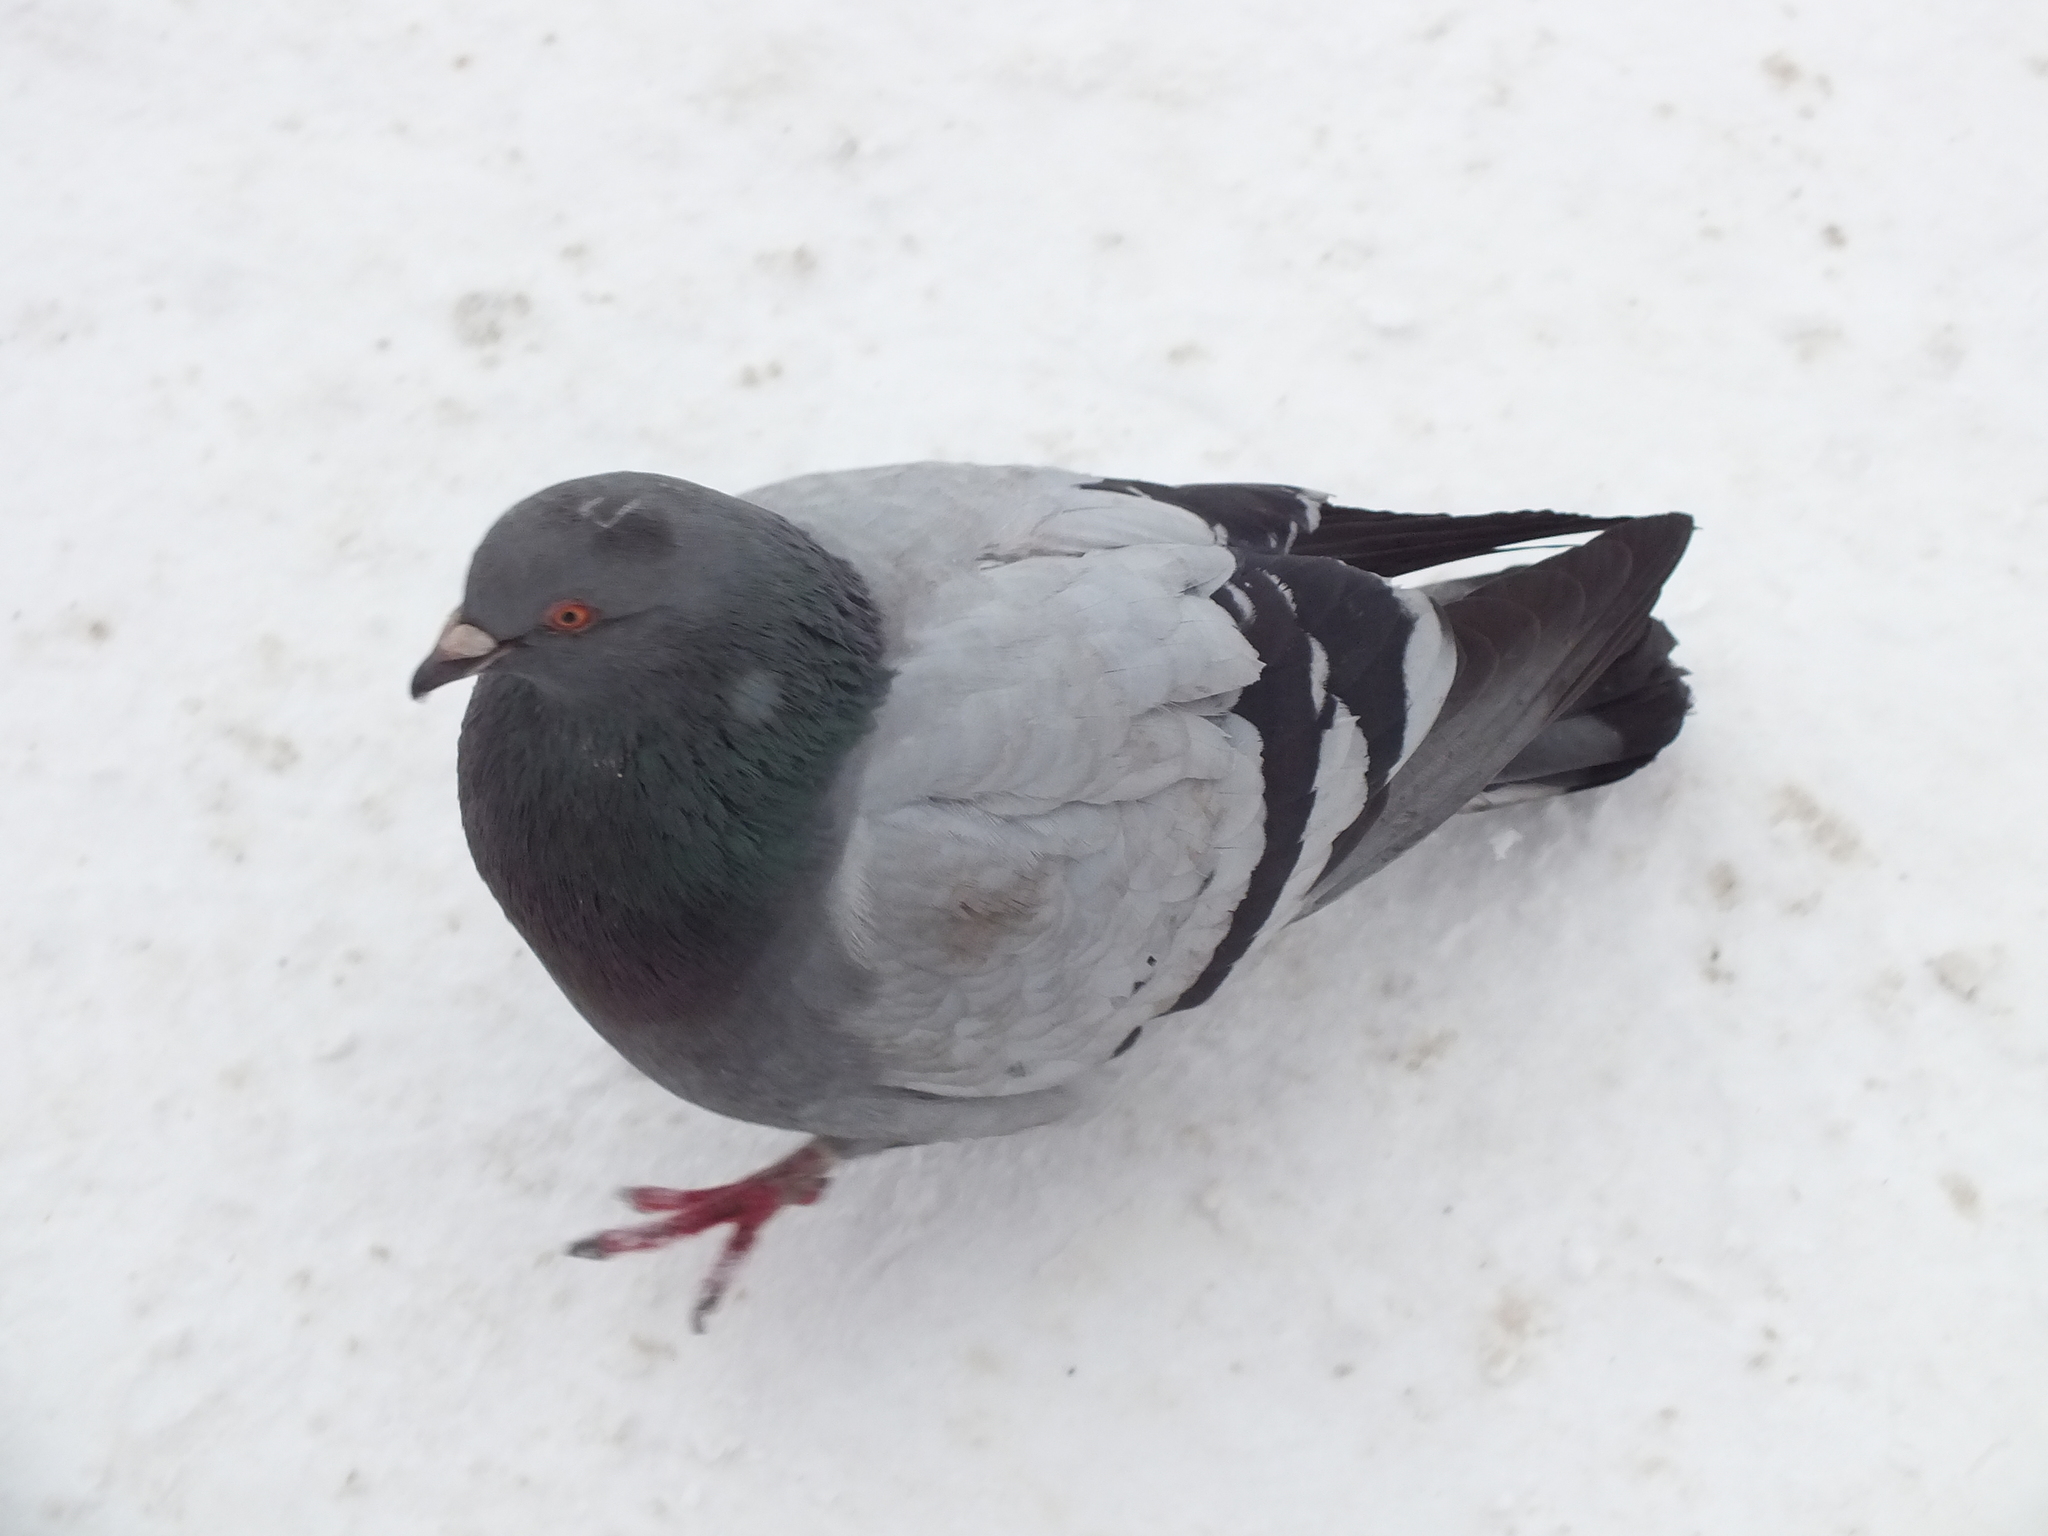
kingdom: Animalia
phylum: Chordata
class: Aves
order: Columbiformes
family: Columbidae
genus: Columba
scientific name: Columba livia
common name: Rock pigeon
